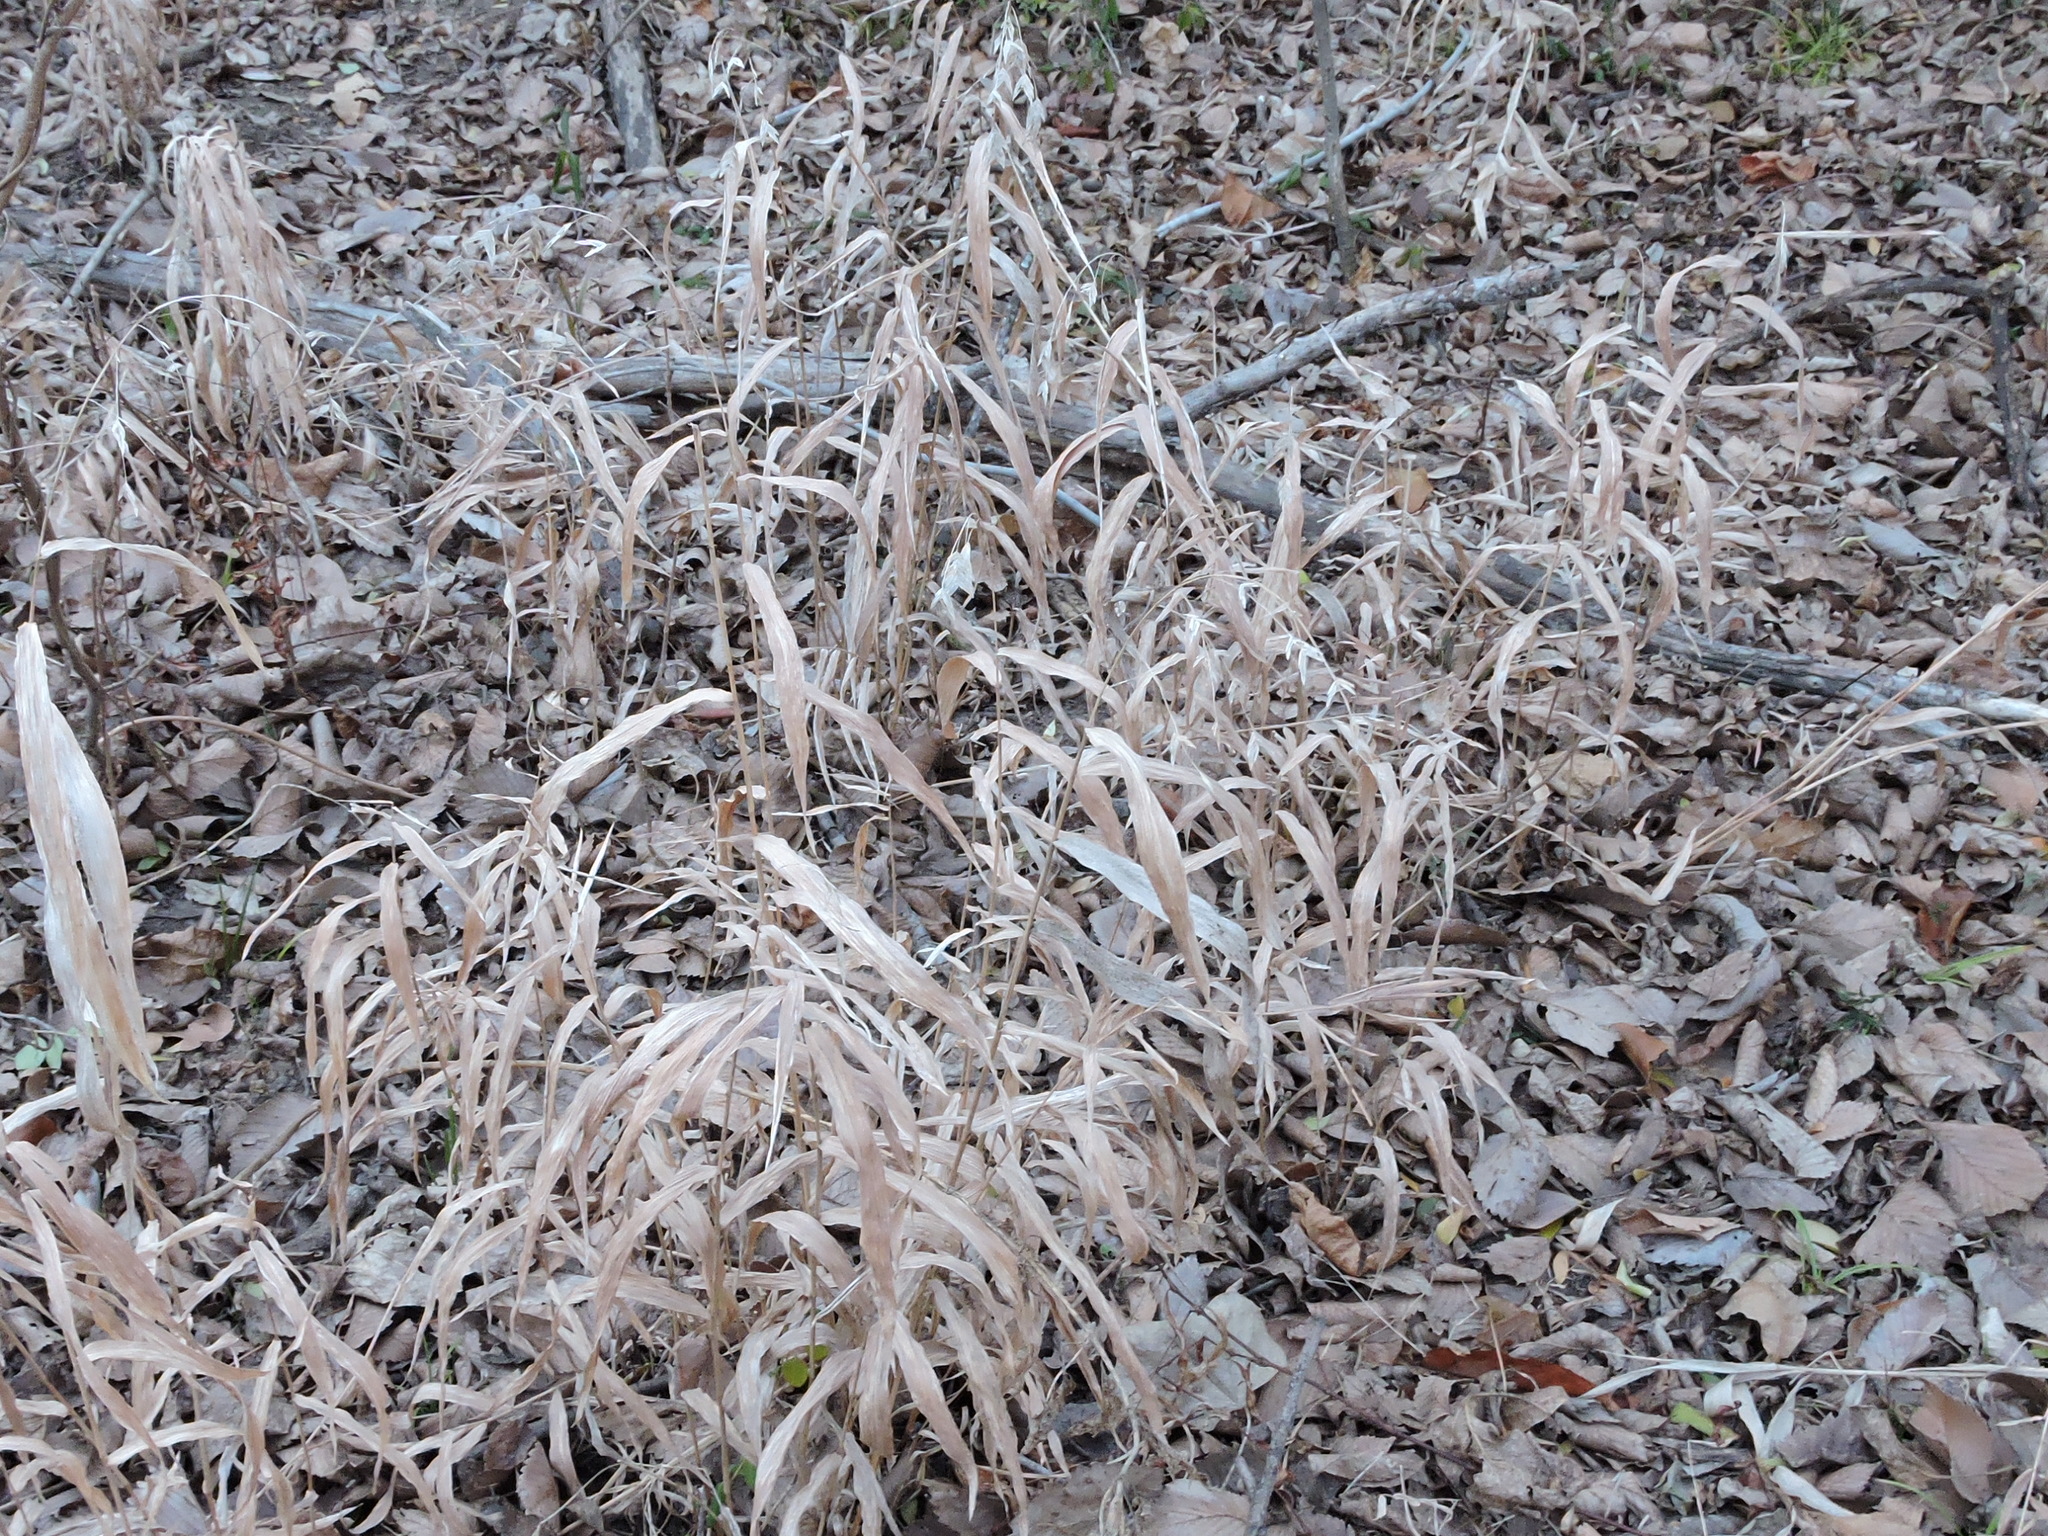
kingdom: Plantae
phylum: Tracheophyta
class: Liliopsida
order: Poales
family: Poaceae
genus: Chasmanthium
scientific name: Chasmanthium latifolium
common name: Broad-leaved chasmanthium
